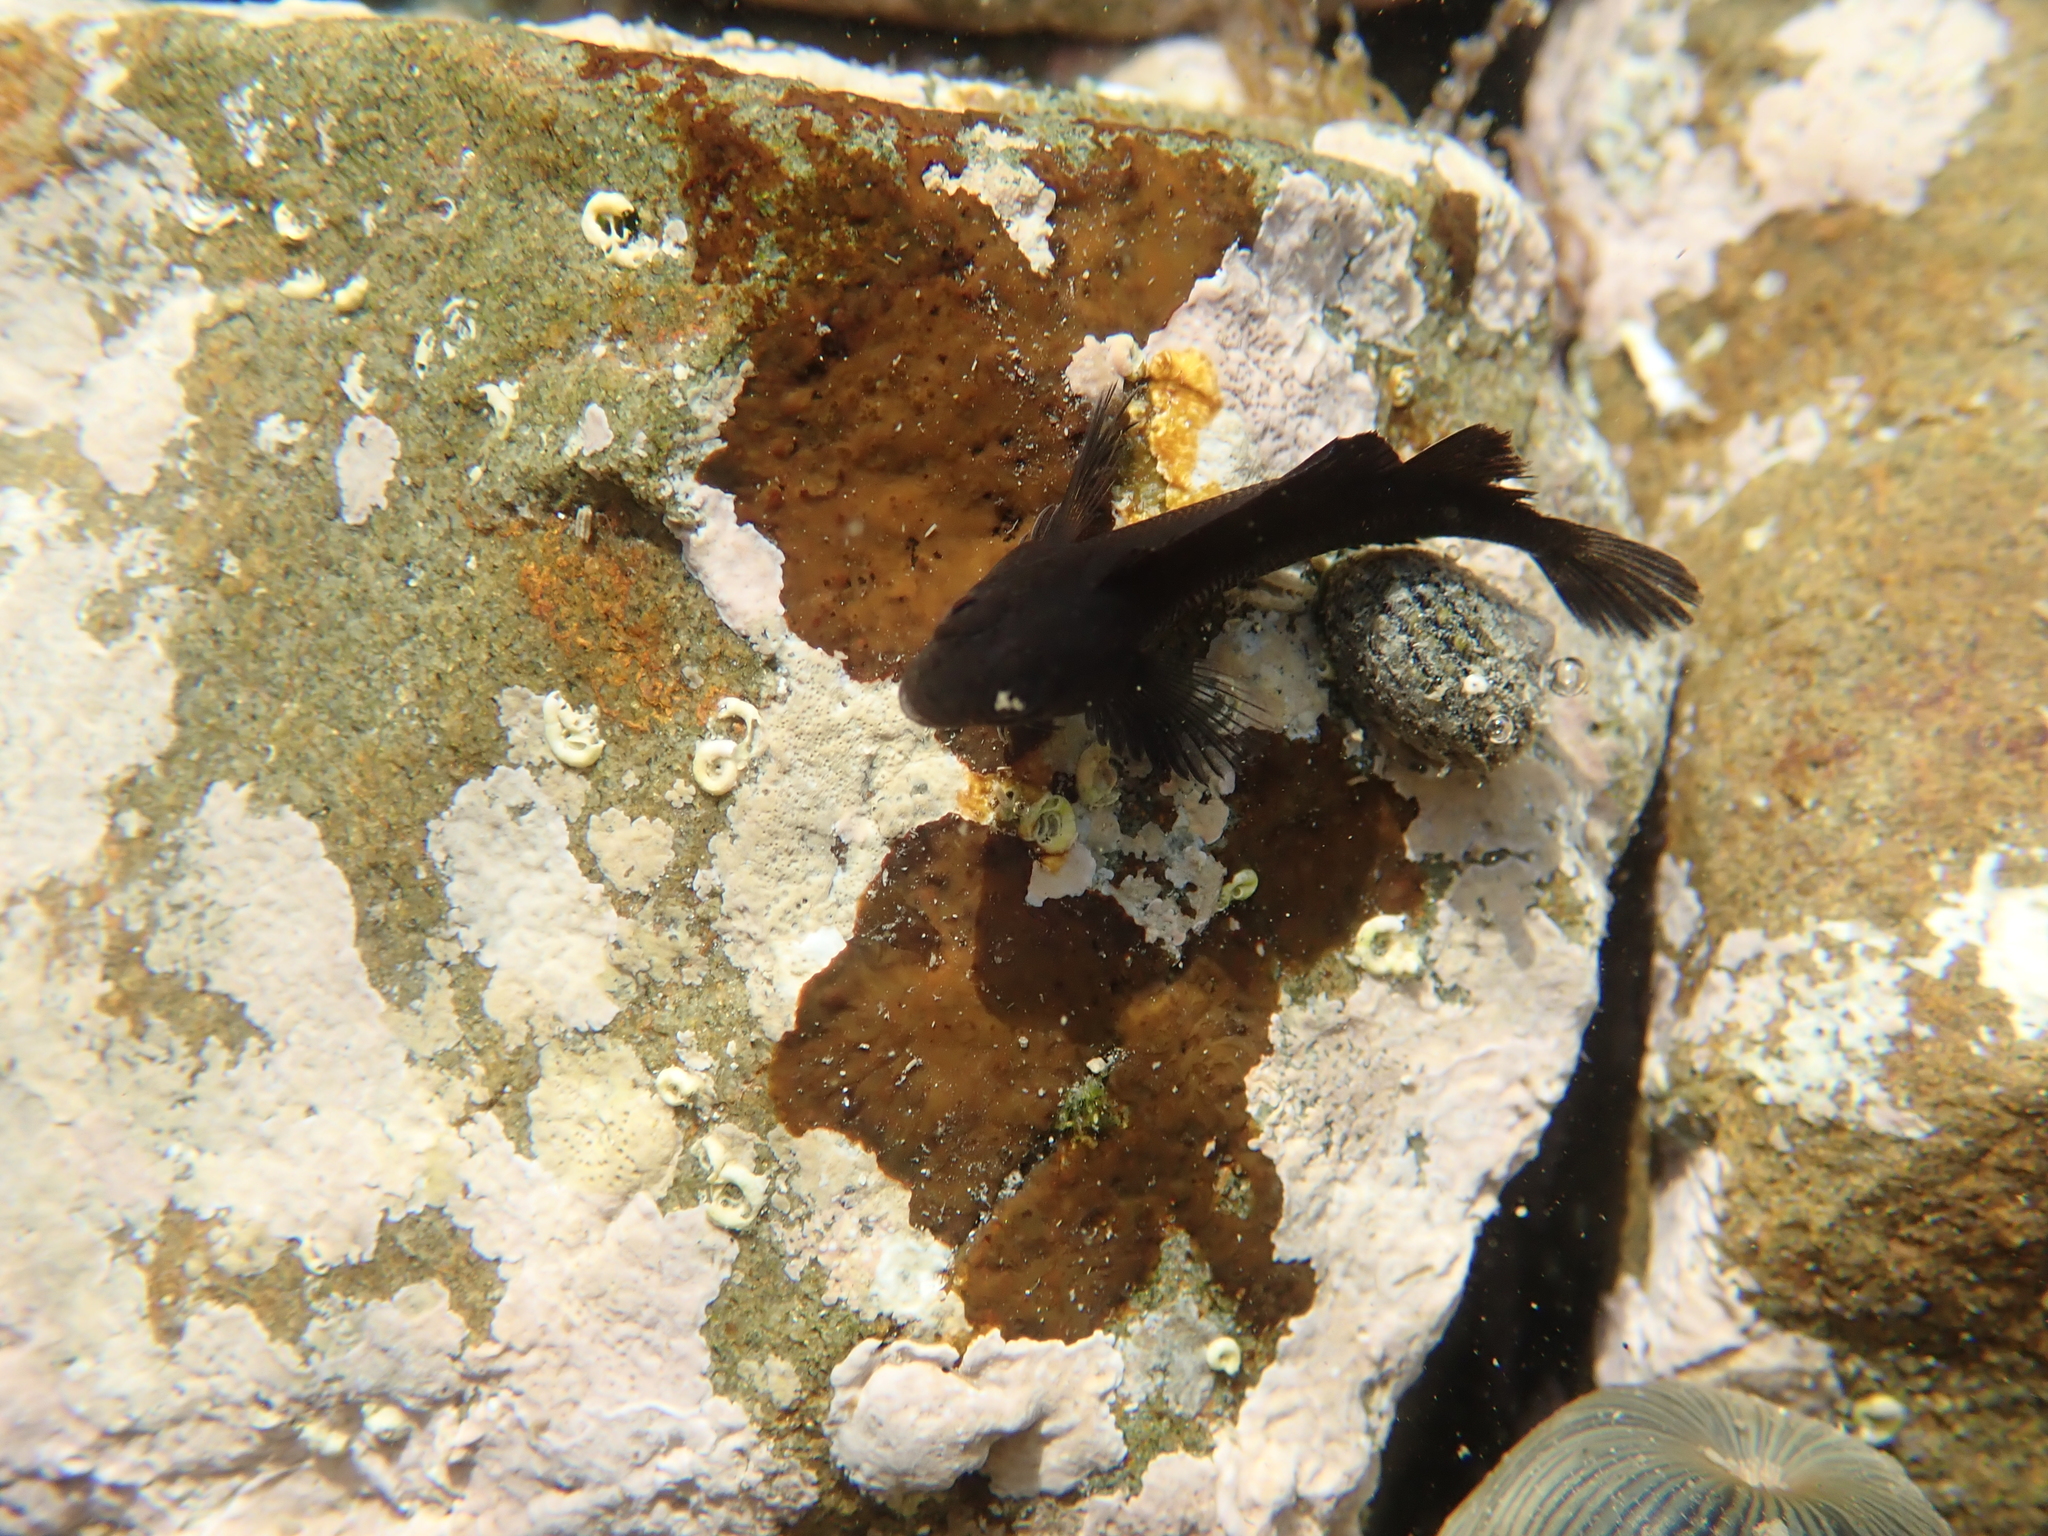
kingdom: Animalia
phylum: Chordata
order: Perciformes
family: Tripterygiidae
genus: Forsterygion
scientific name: Forsterygion lapillum
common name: Common triplefin
